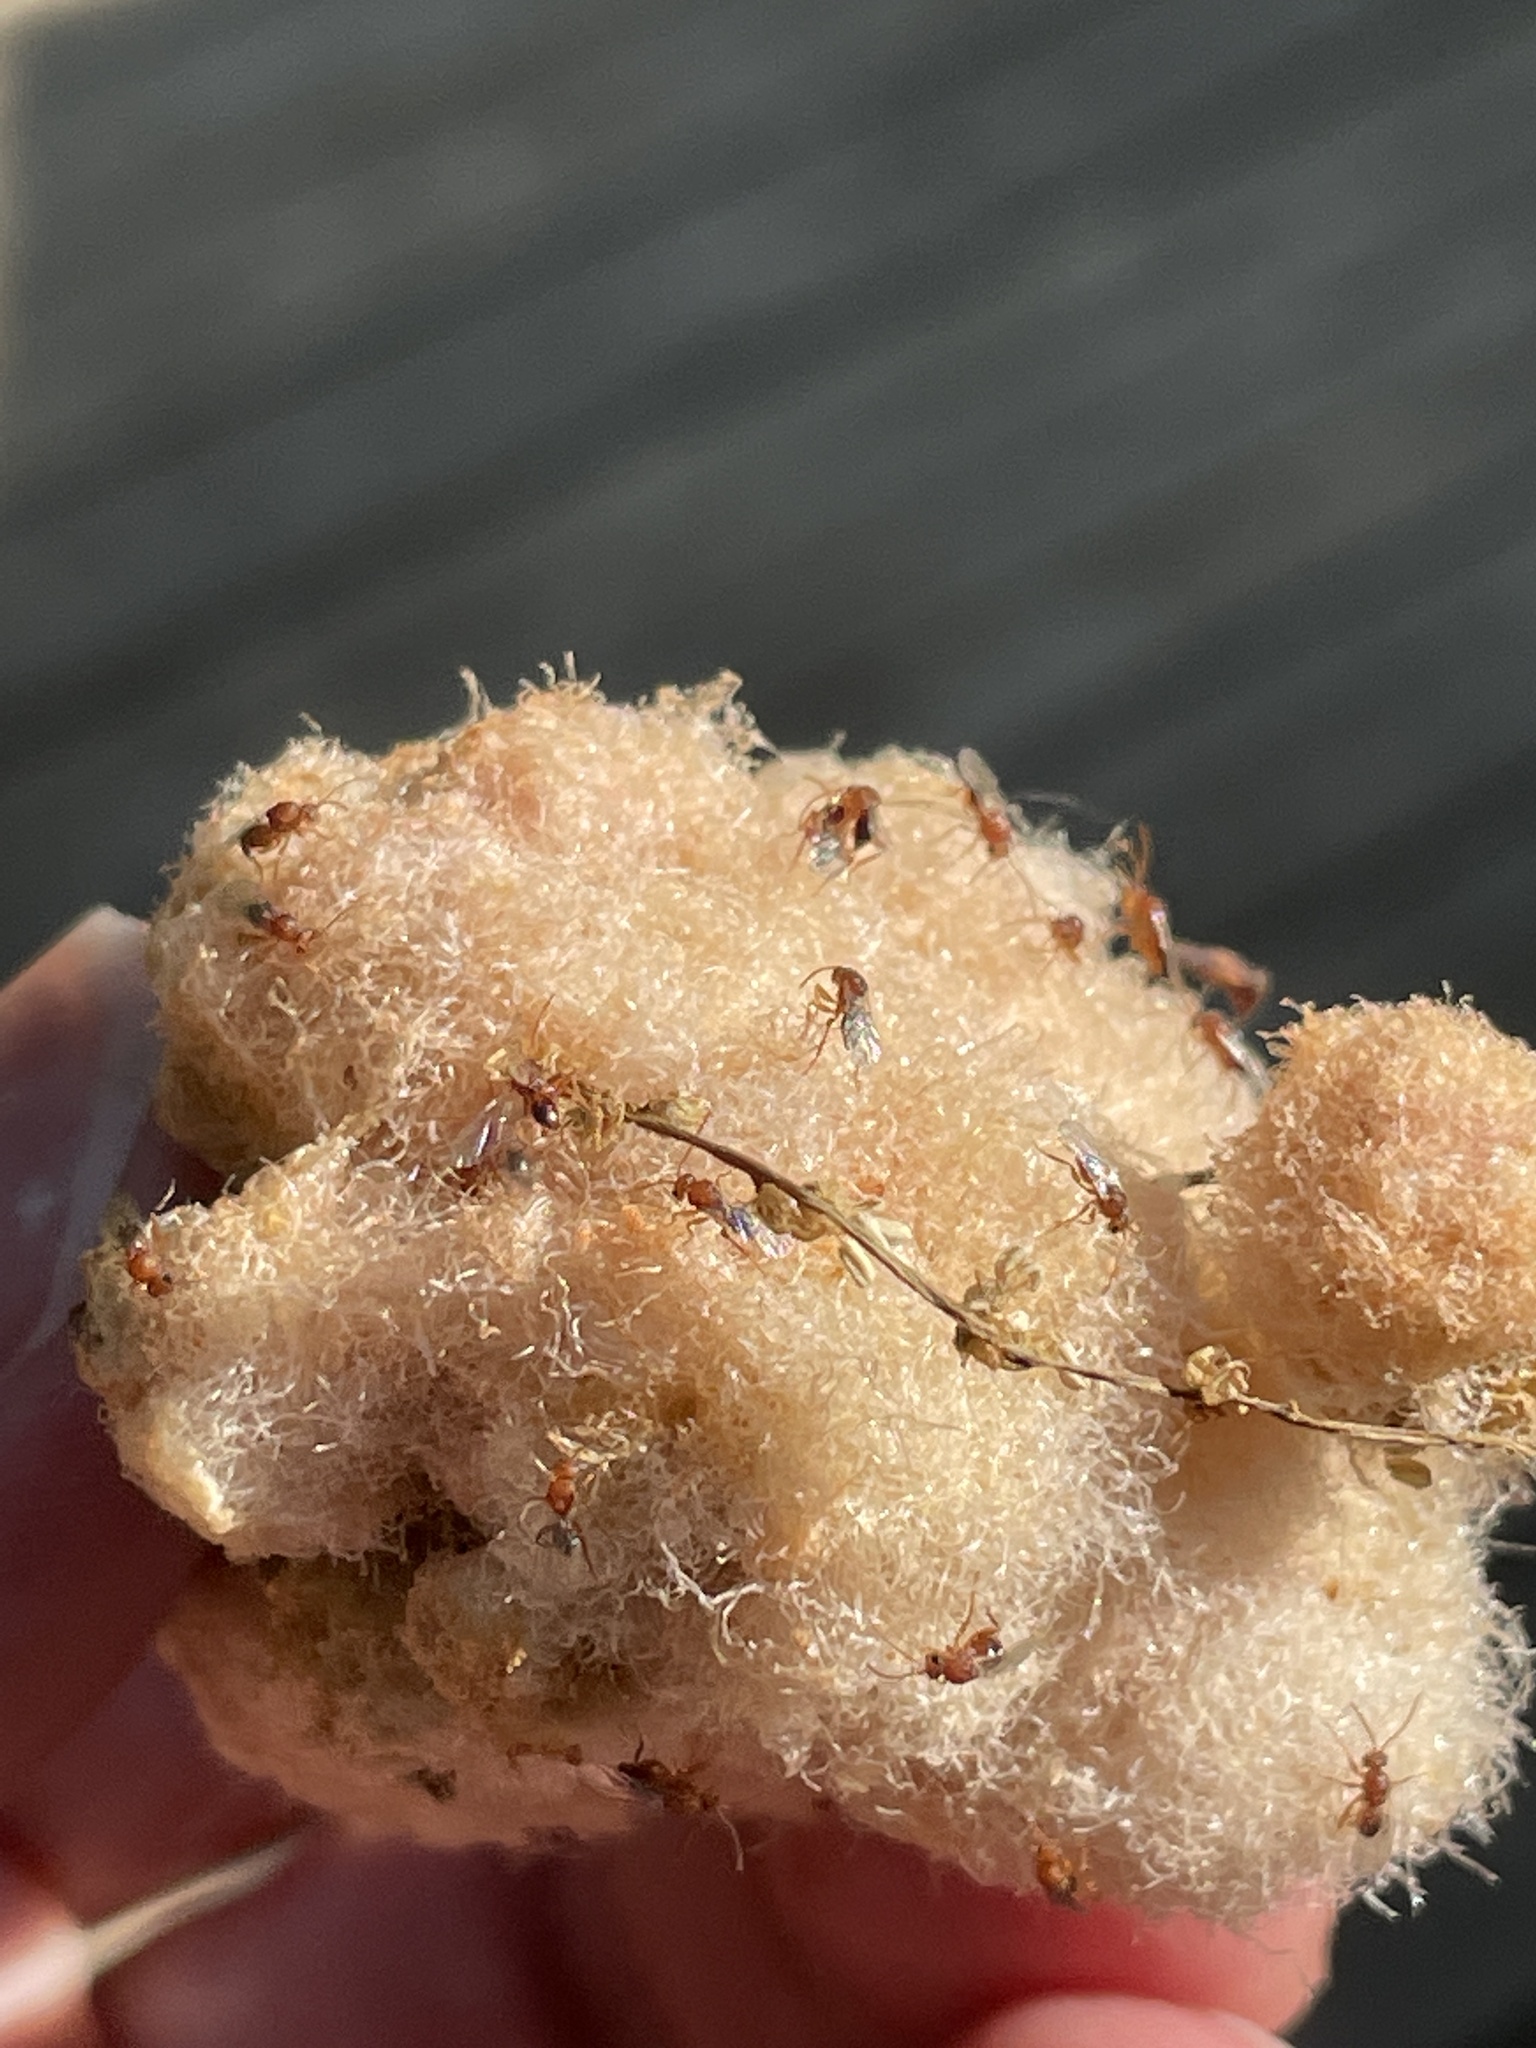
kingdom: Animalia
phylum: Arthropoda
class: Insecta
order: Hymenoptera
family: Cynipidae
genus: Callirhytis
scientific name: Callirhytis
